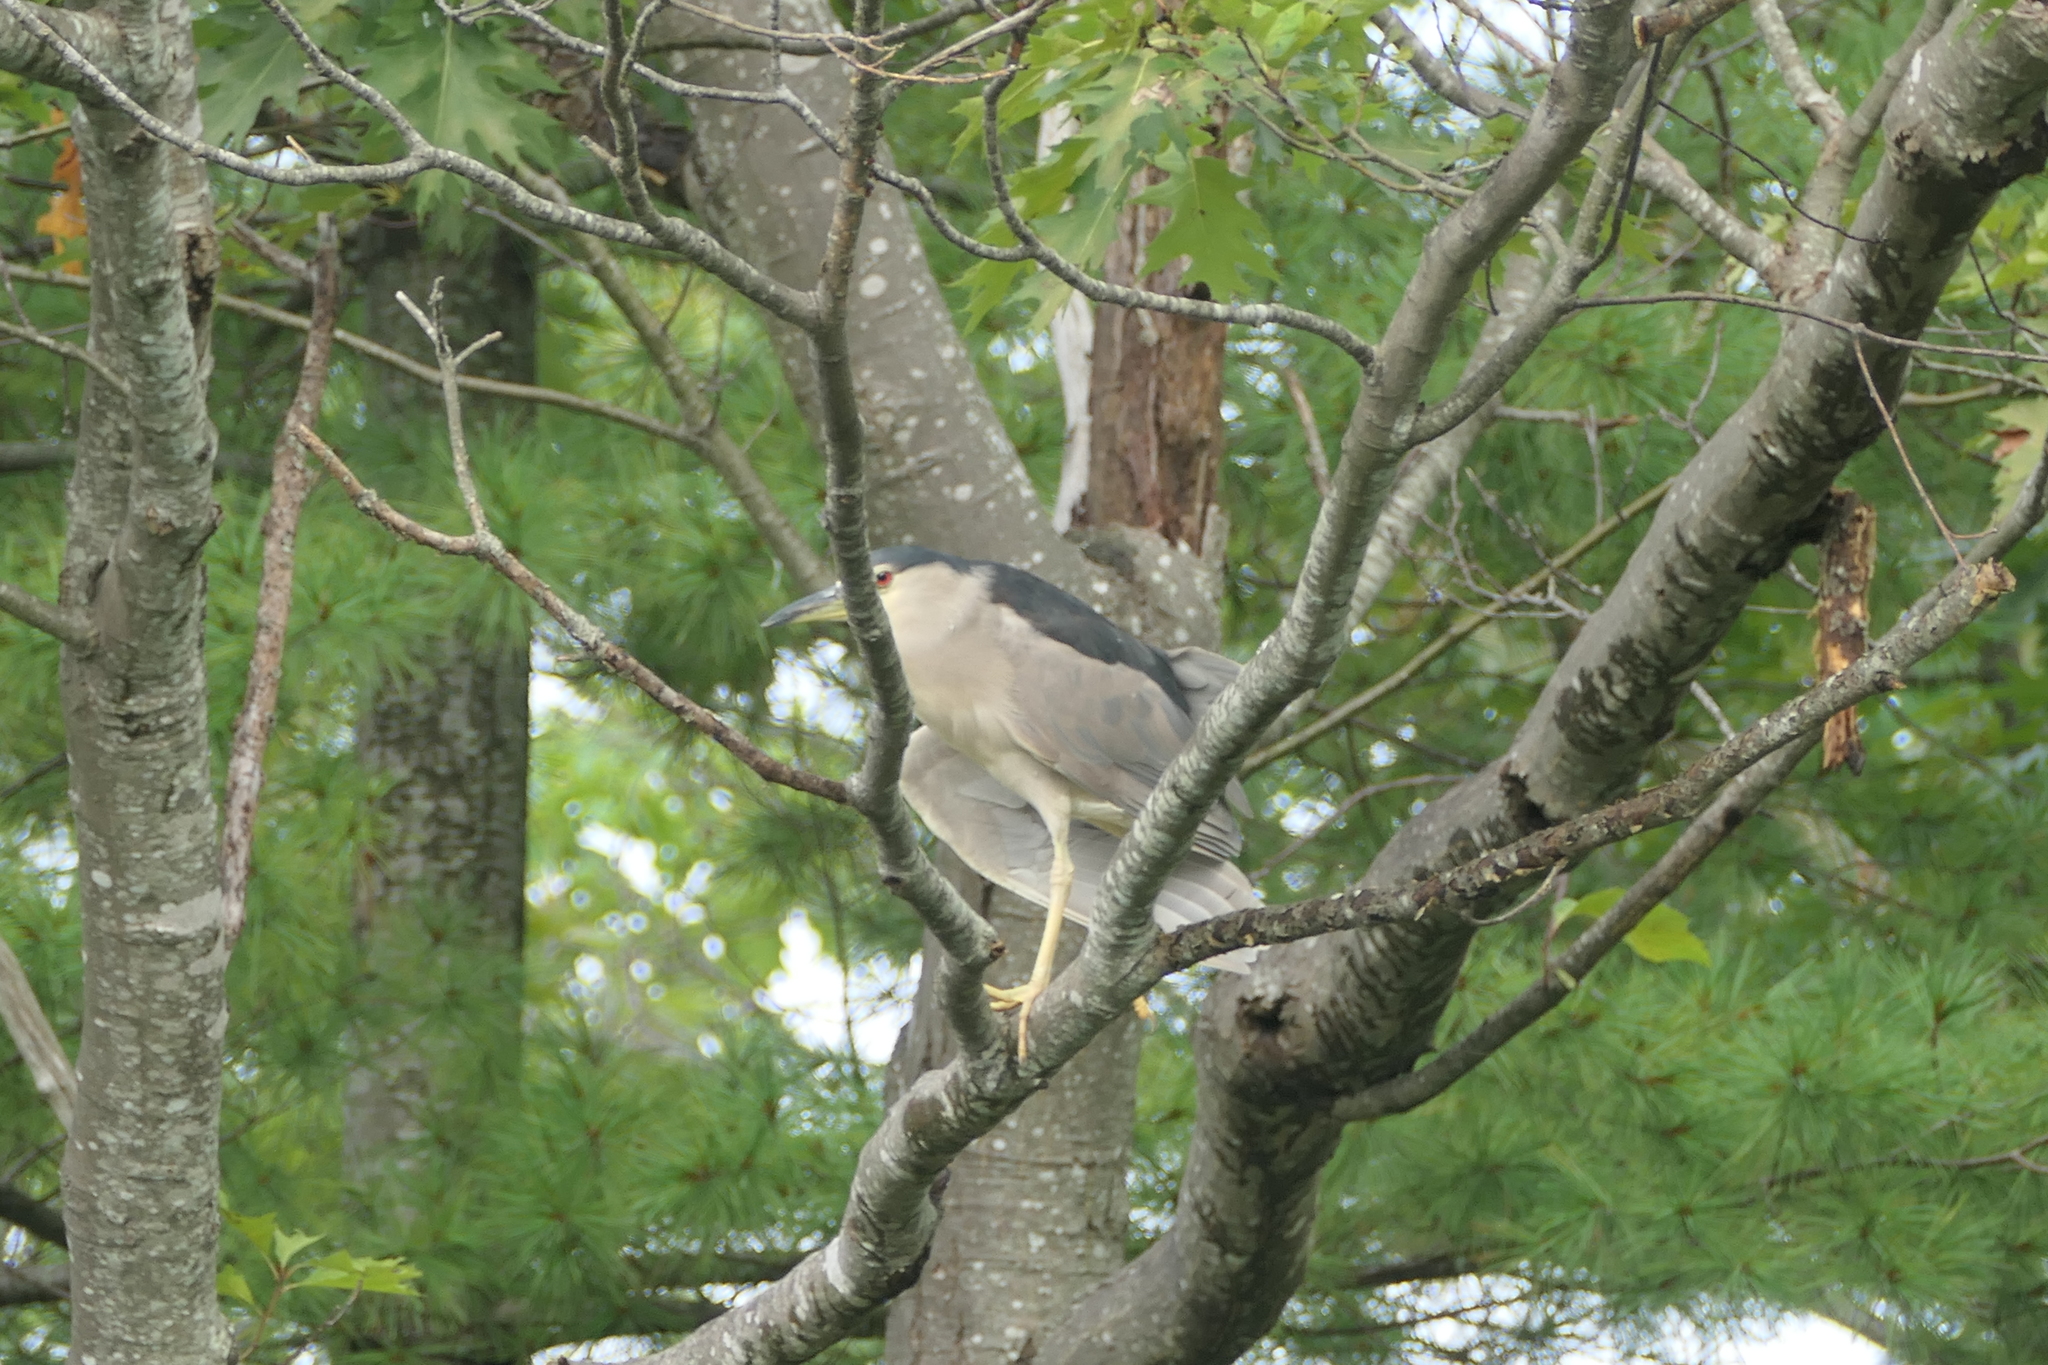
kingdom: Animalia
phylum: Chordata
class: Aves
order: Pelecaniformes
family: Ardeidae
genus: Nycticorax
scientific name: Nycticorax nycticorax
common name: Black-crowned night heron
